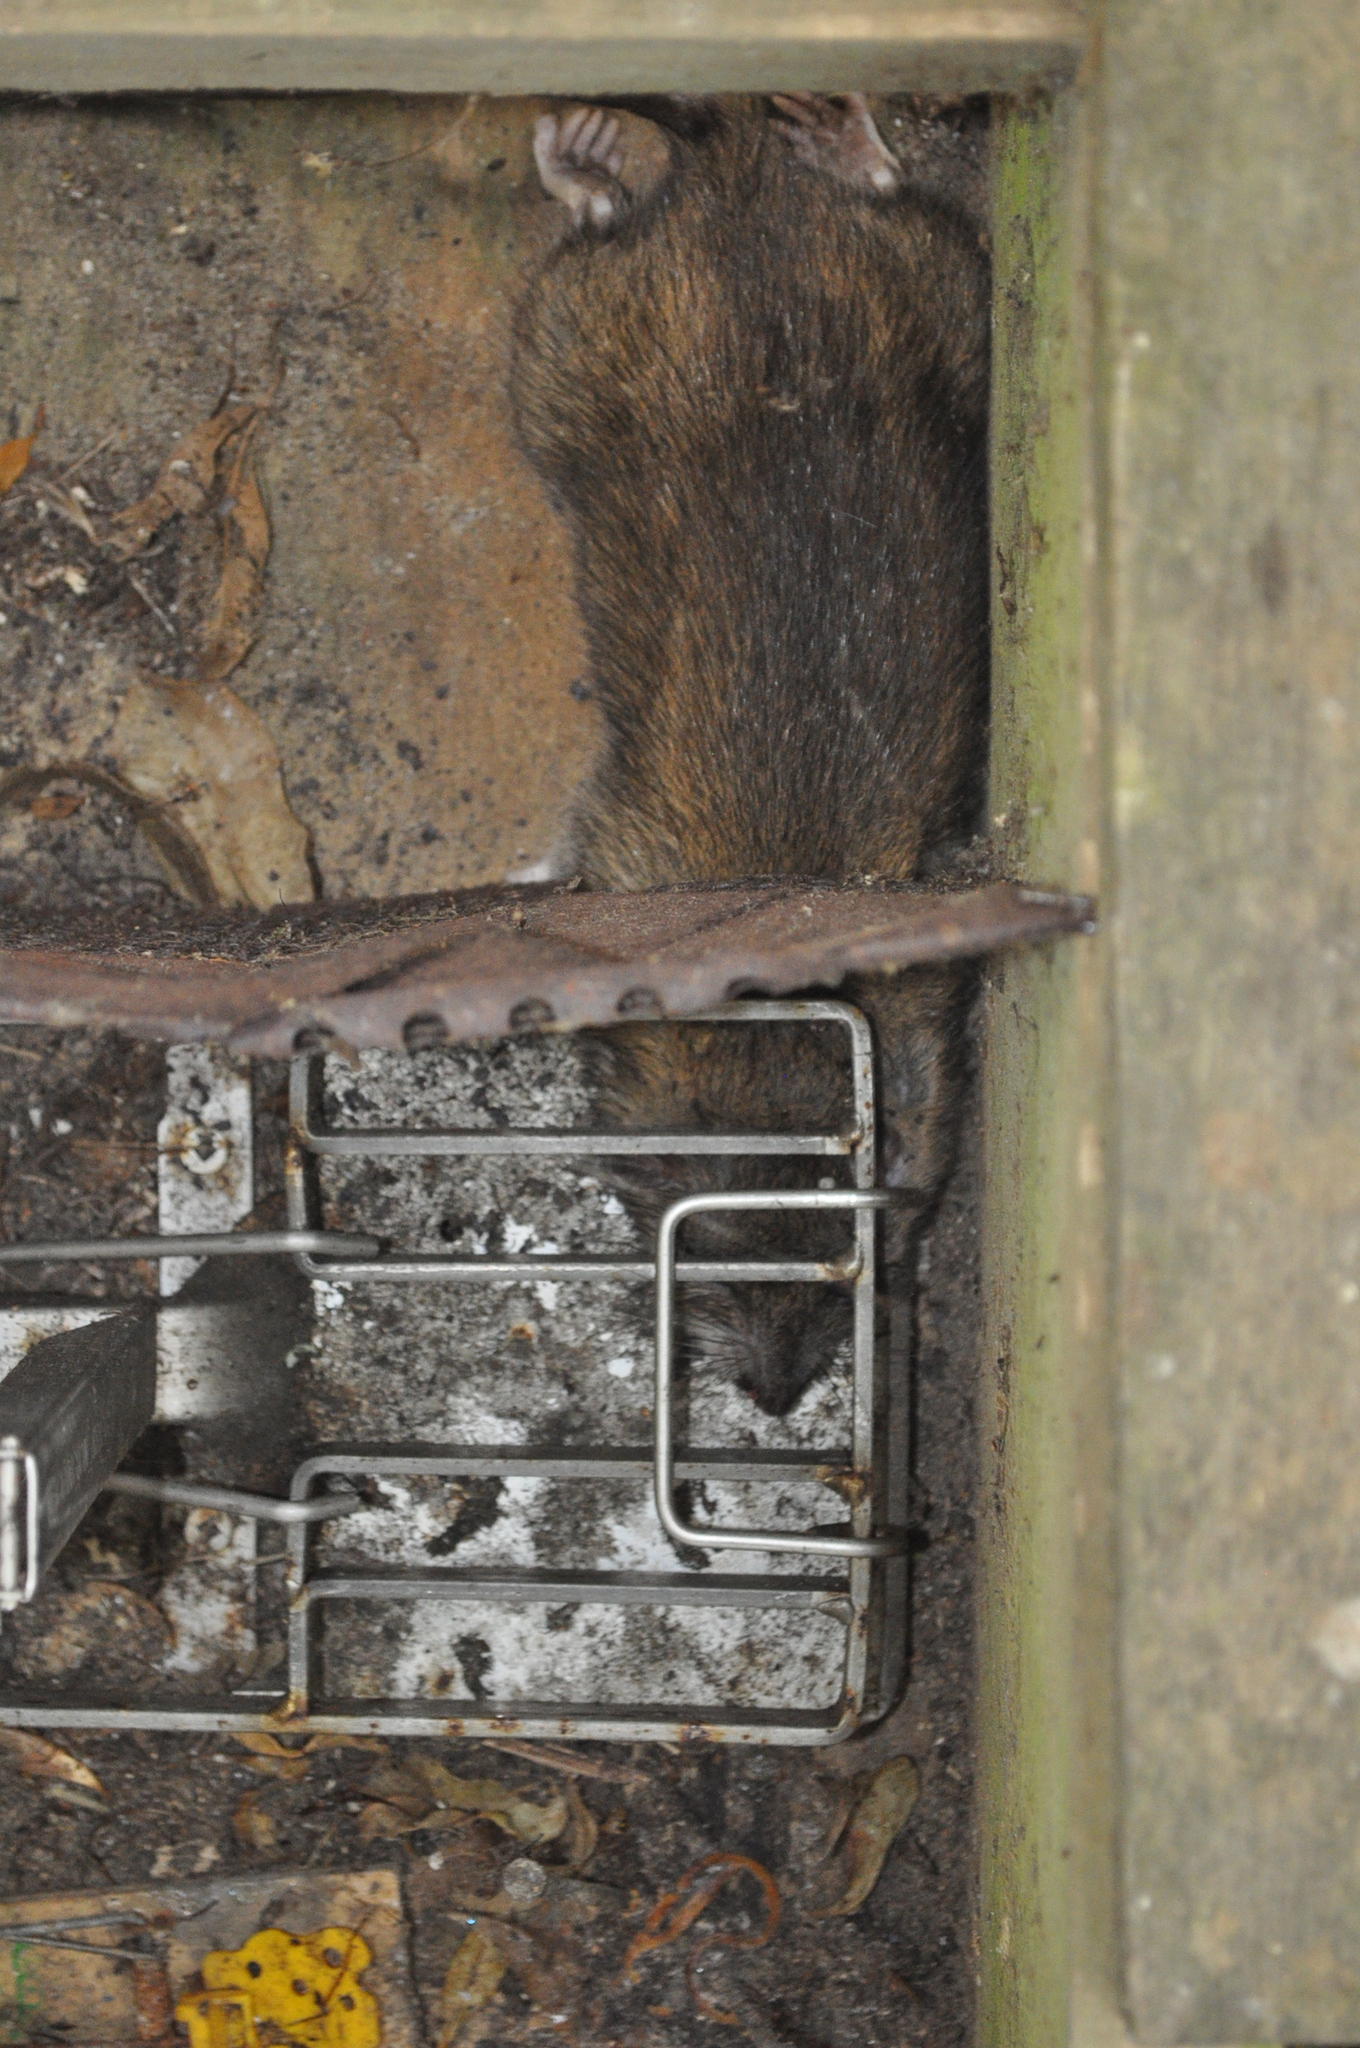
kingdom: Animalia
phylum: Chordata
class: Mammalia
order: Rodentia
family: Muridae
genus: Rattus
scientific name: Rattus norvegicus
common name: Brown rat
